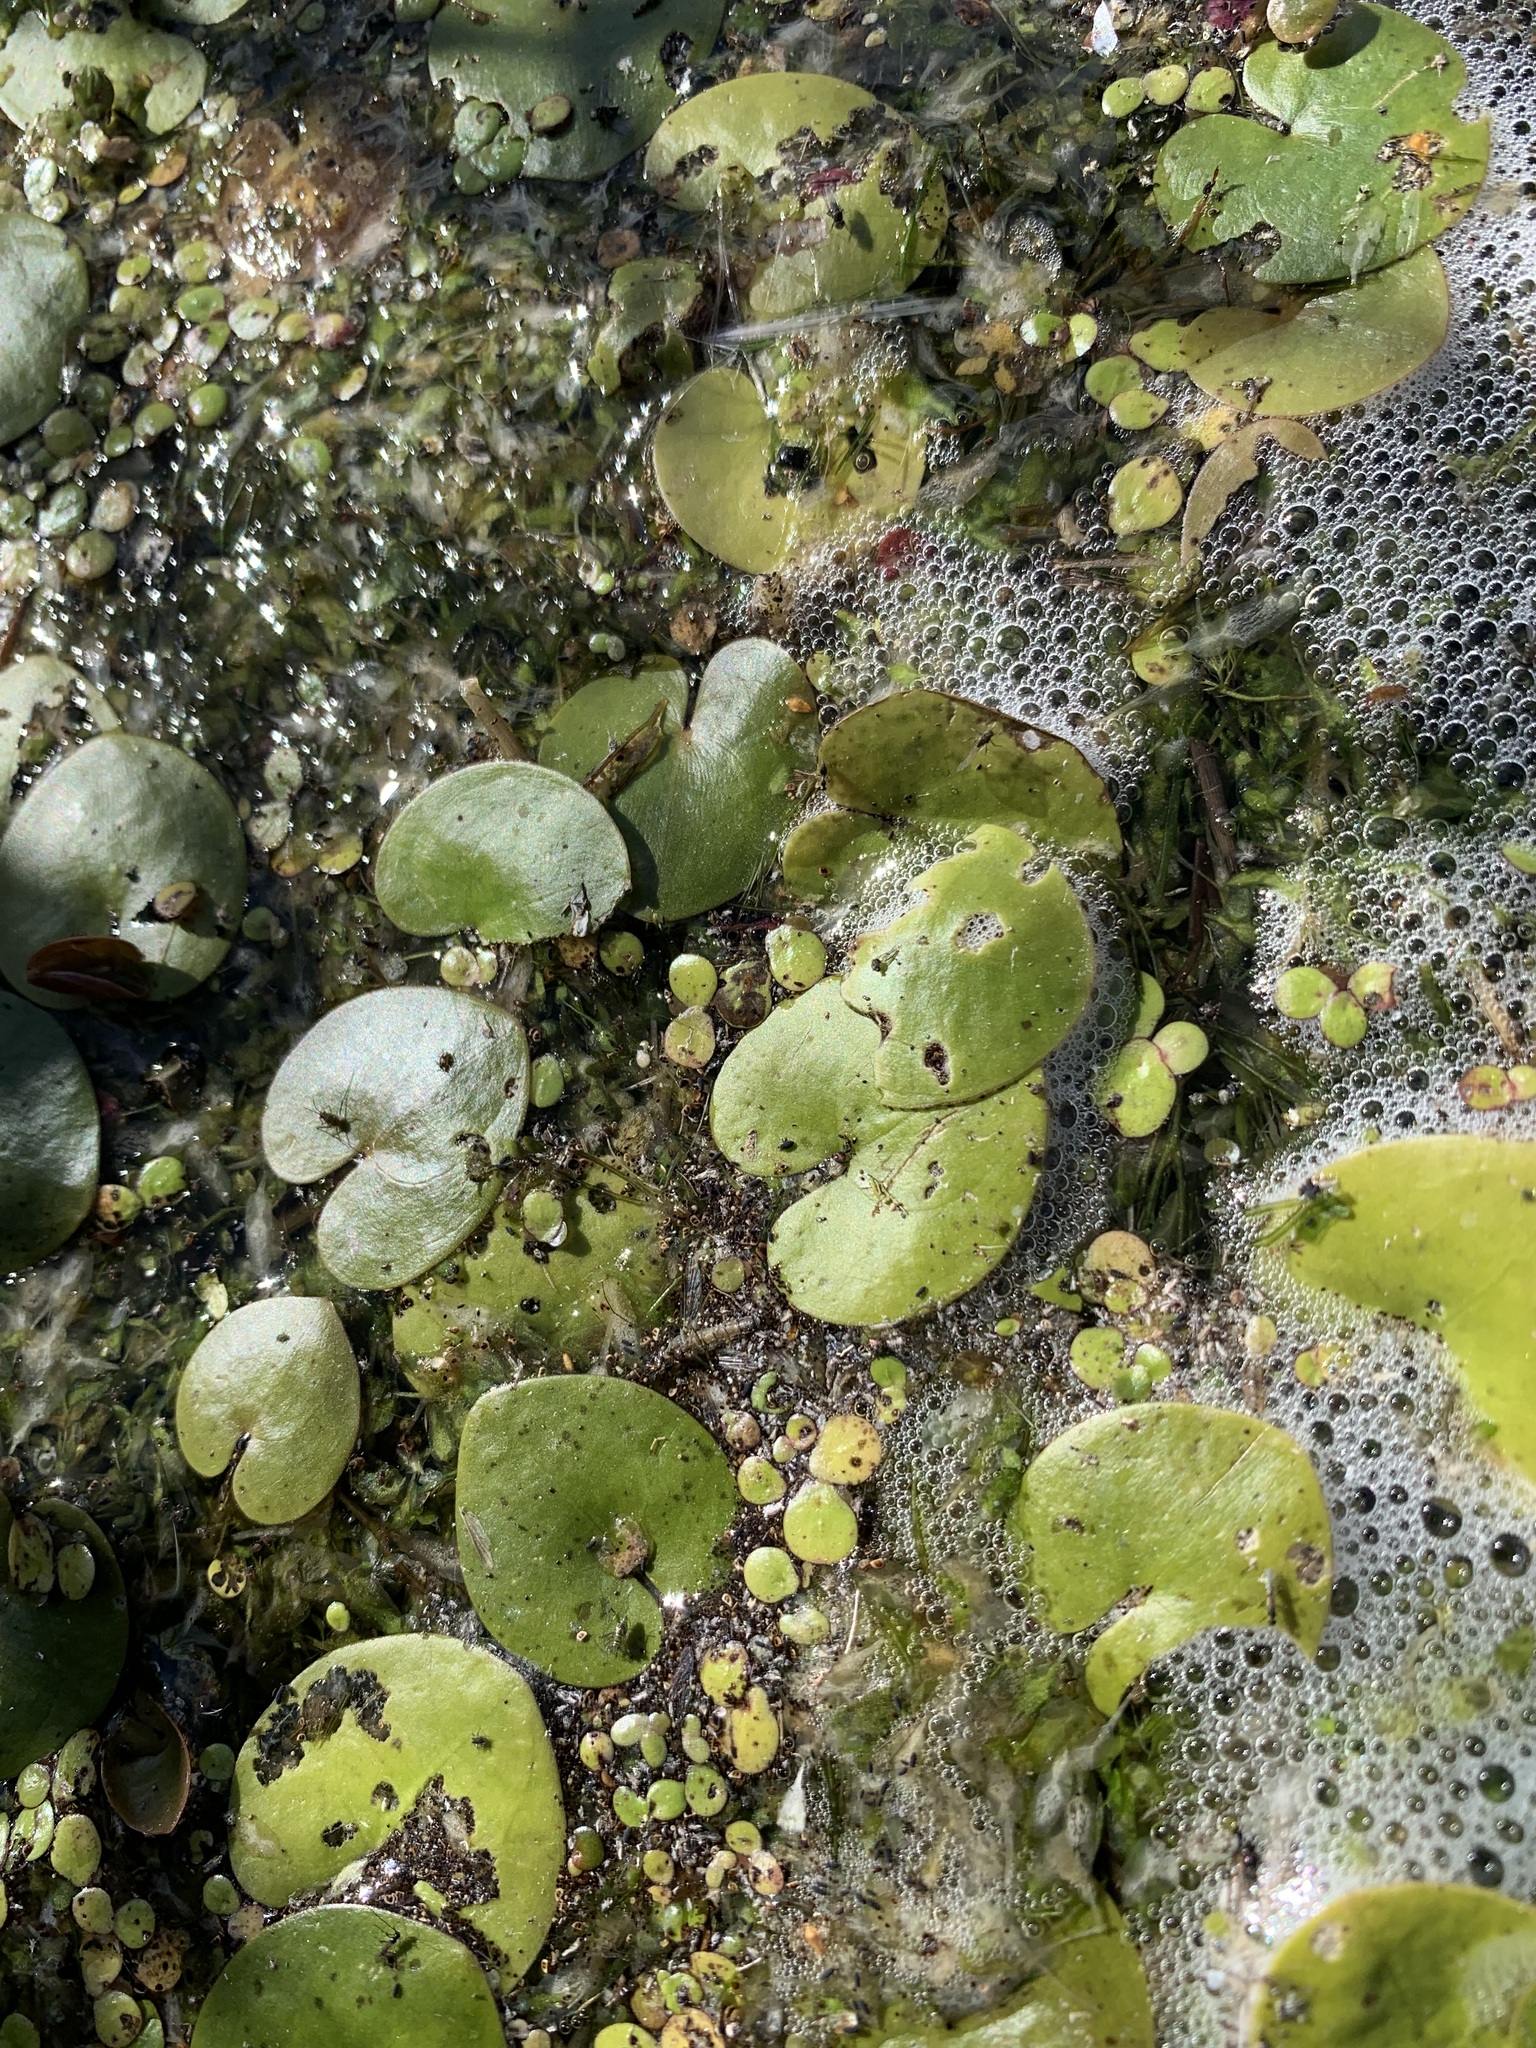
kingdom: Plantae
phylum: Tracheophyta
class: Liliopsida
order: Alismatales
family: Hydrocharitaceae
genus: Hydrocharis
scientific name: Hydrocharis morsus-ranae
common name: Frogbit
